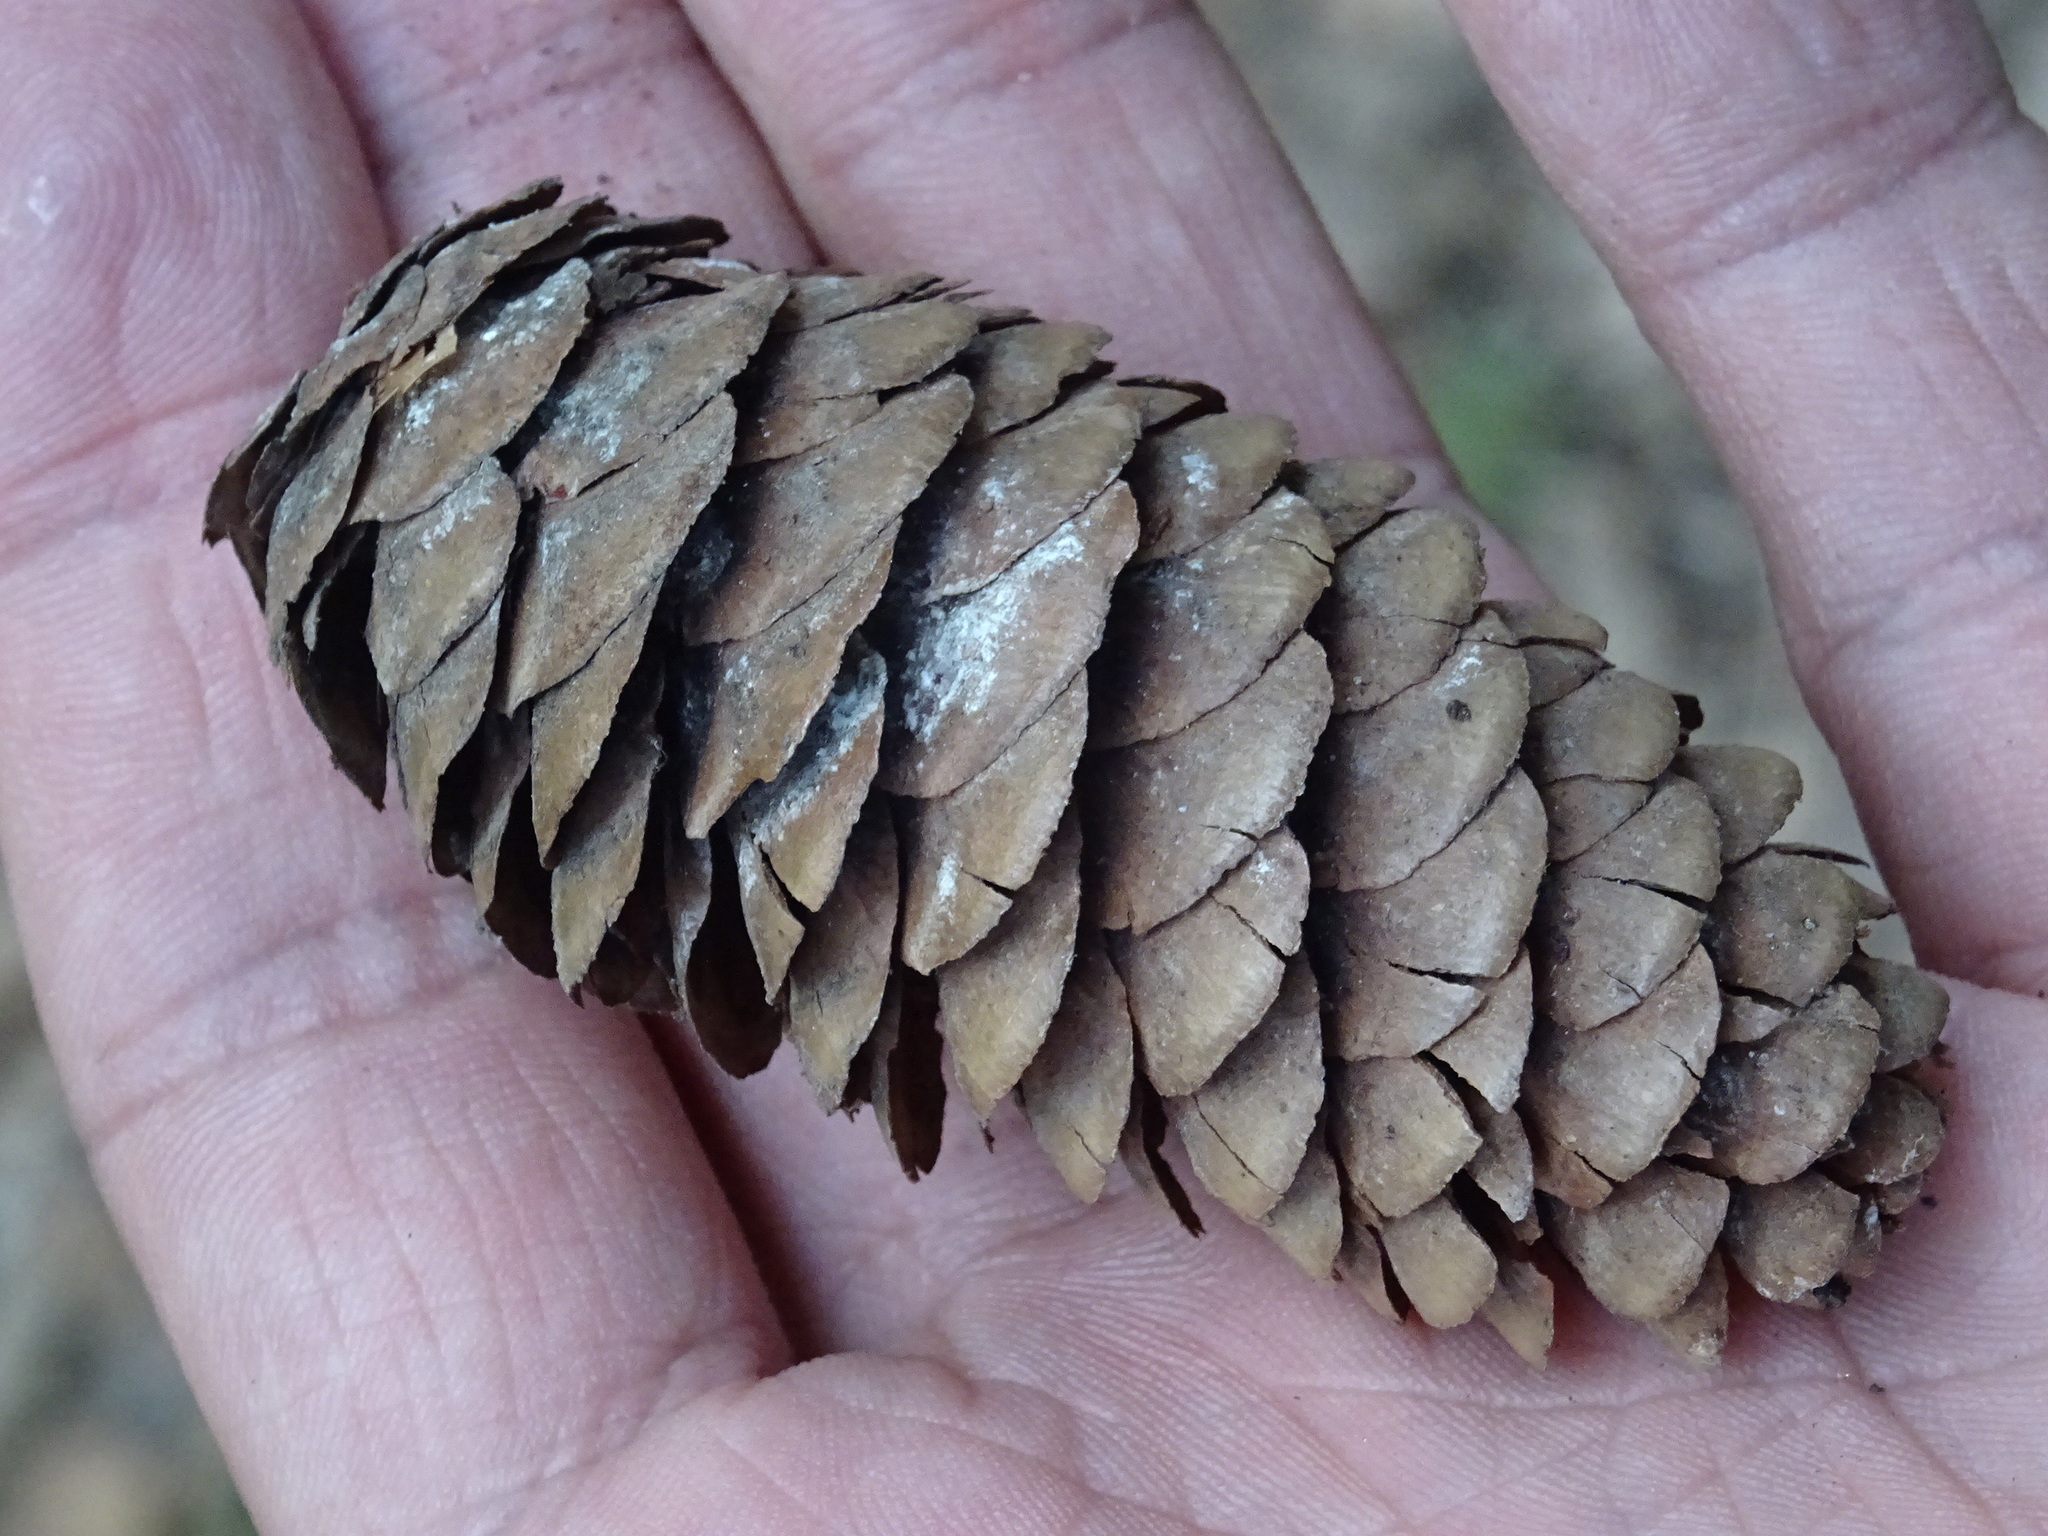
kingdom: Plantae
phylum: Tracheophyta
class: Pinopsida
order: Pinales
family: Pinaceae
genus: Picea
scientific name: Picea obovata
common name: Siberian spruce
